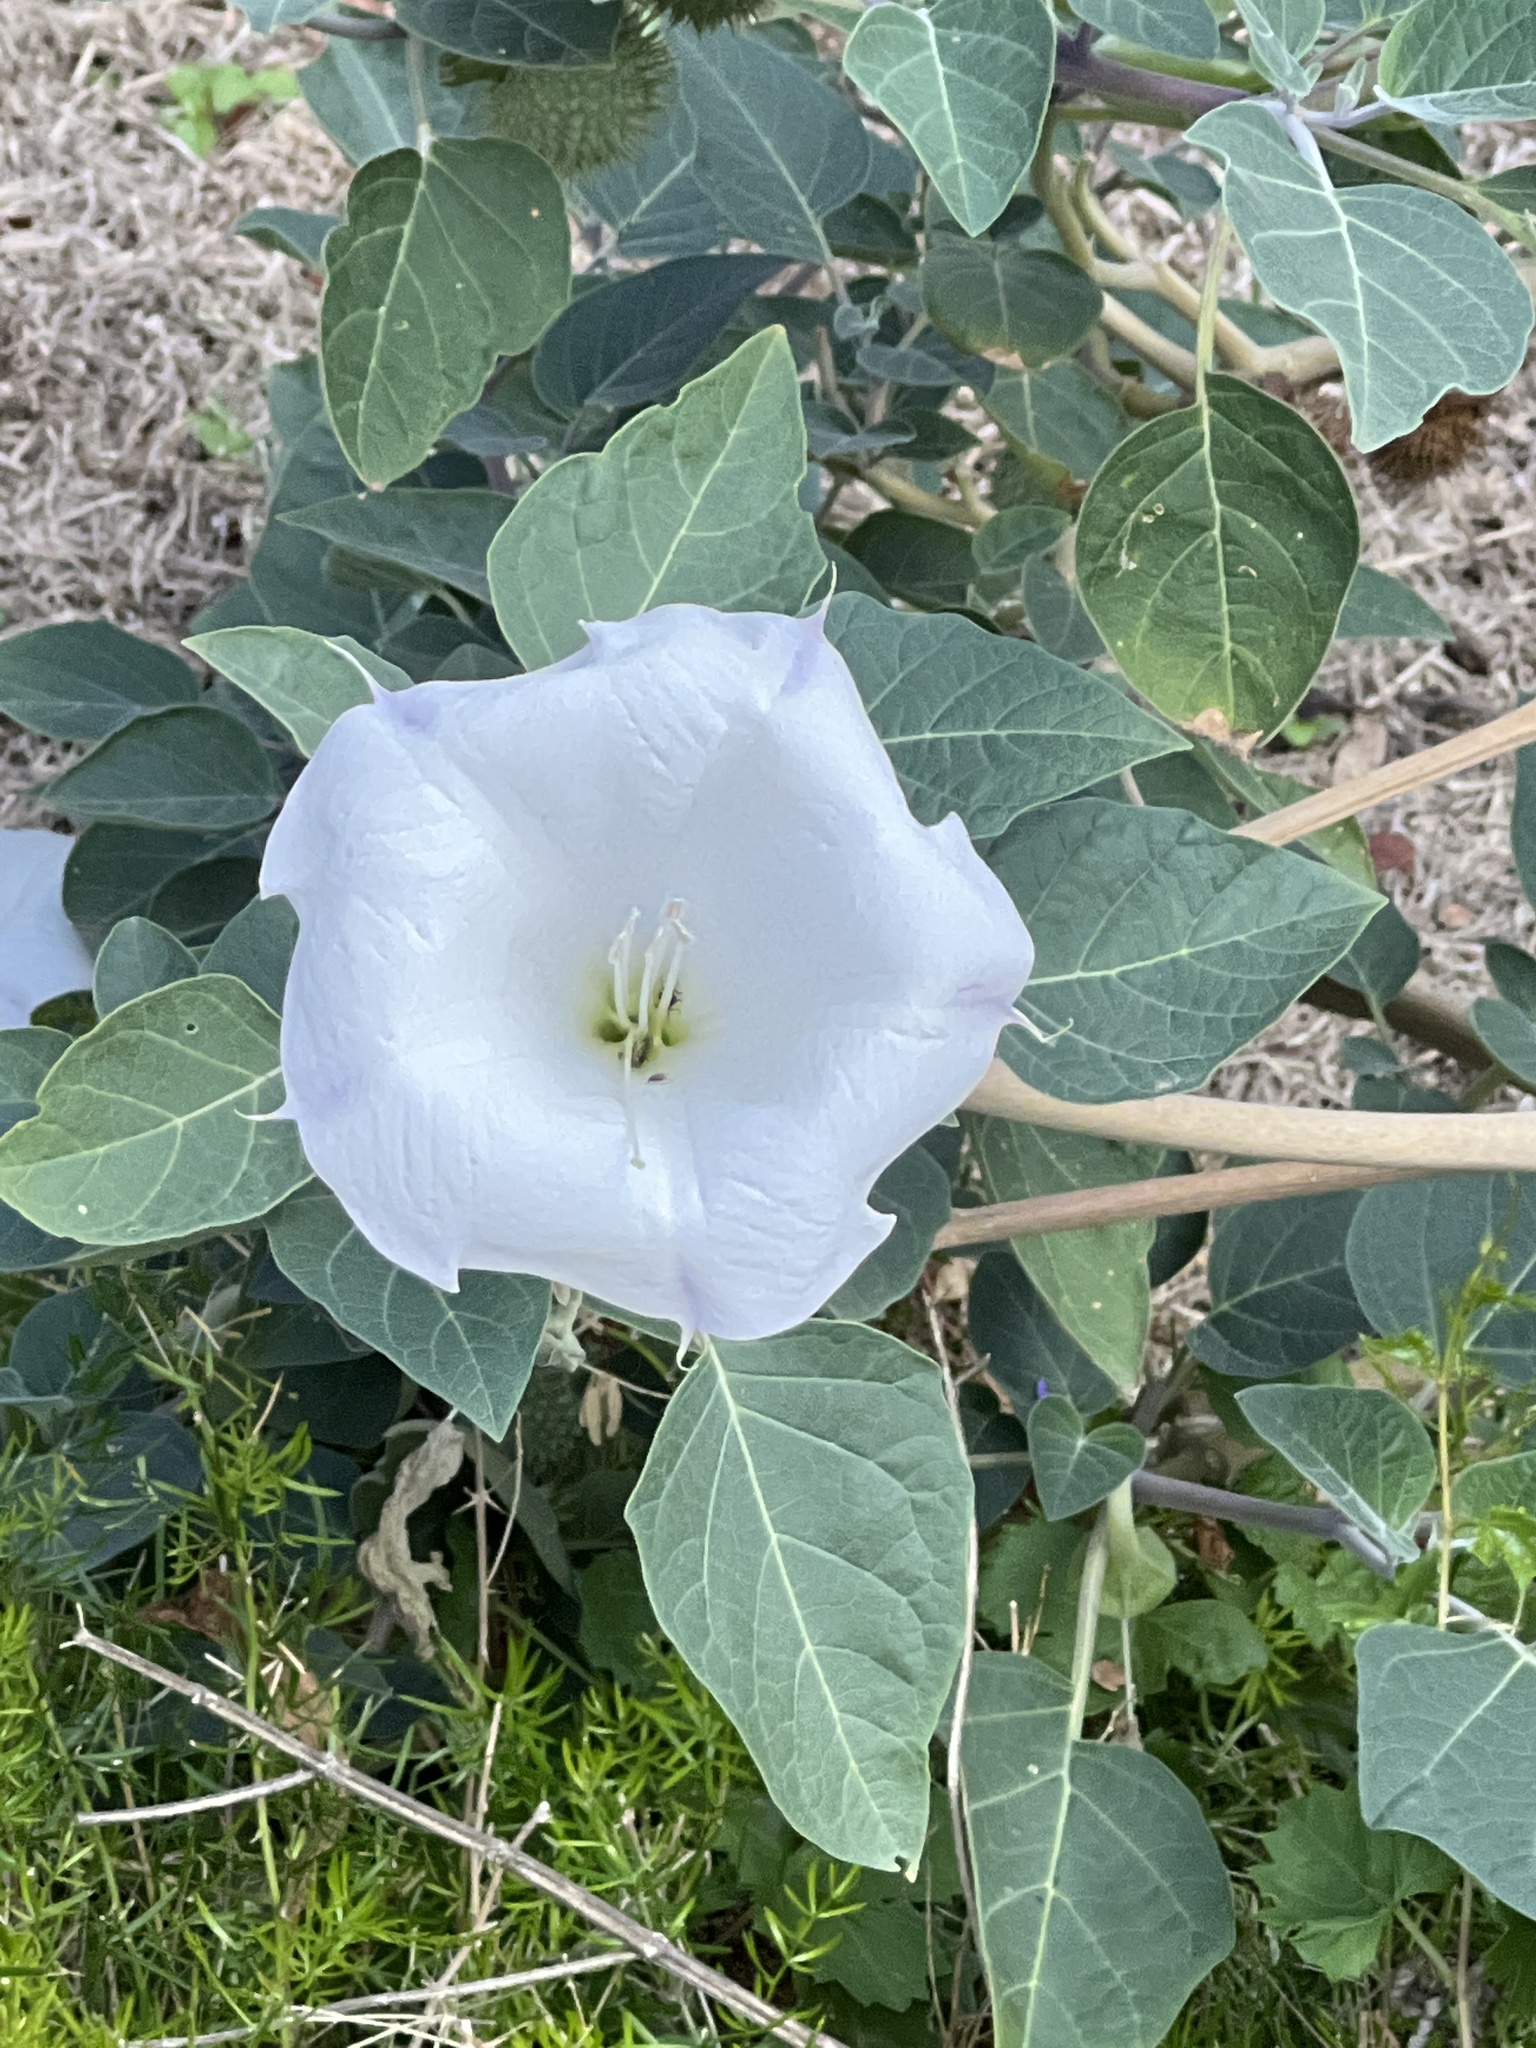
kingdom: Plantae
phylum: Tracheophyta
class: Magnoliopsida
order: Solanales
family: Solanaceae
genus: Datura
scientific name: Datura wrightii
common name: Sacred thorn-apple
